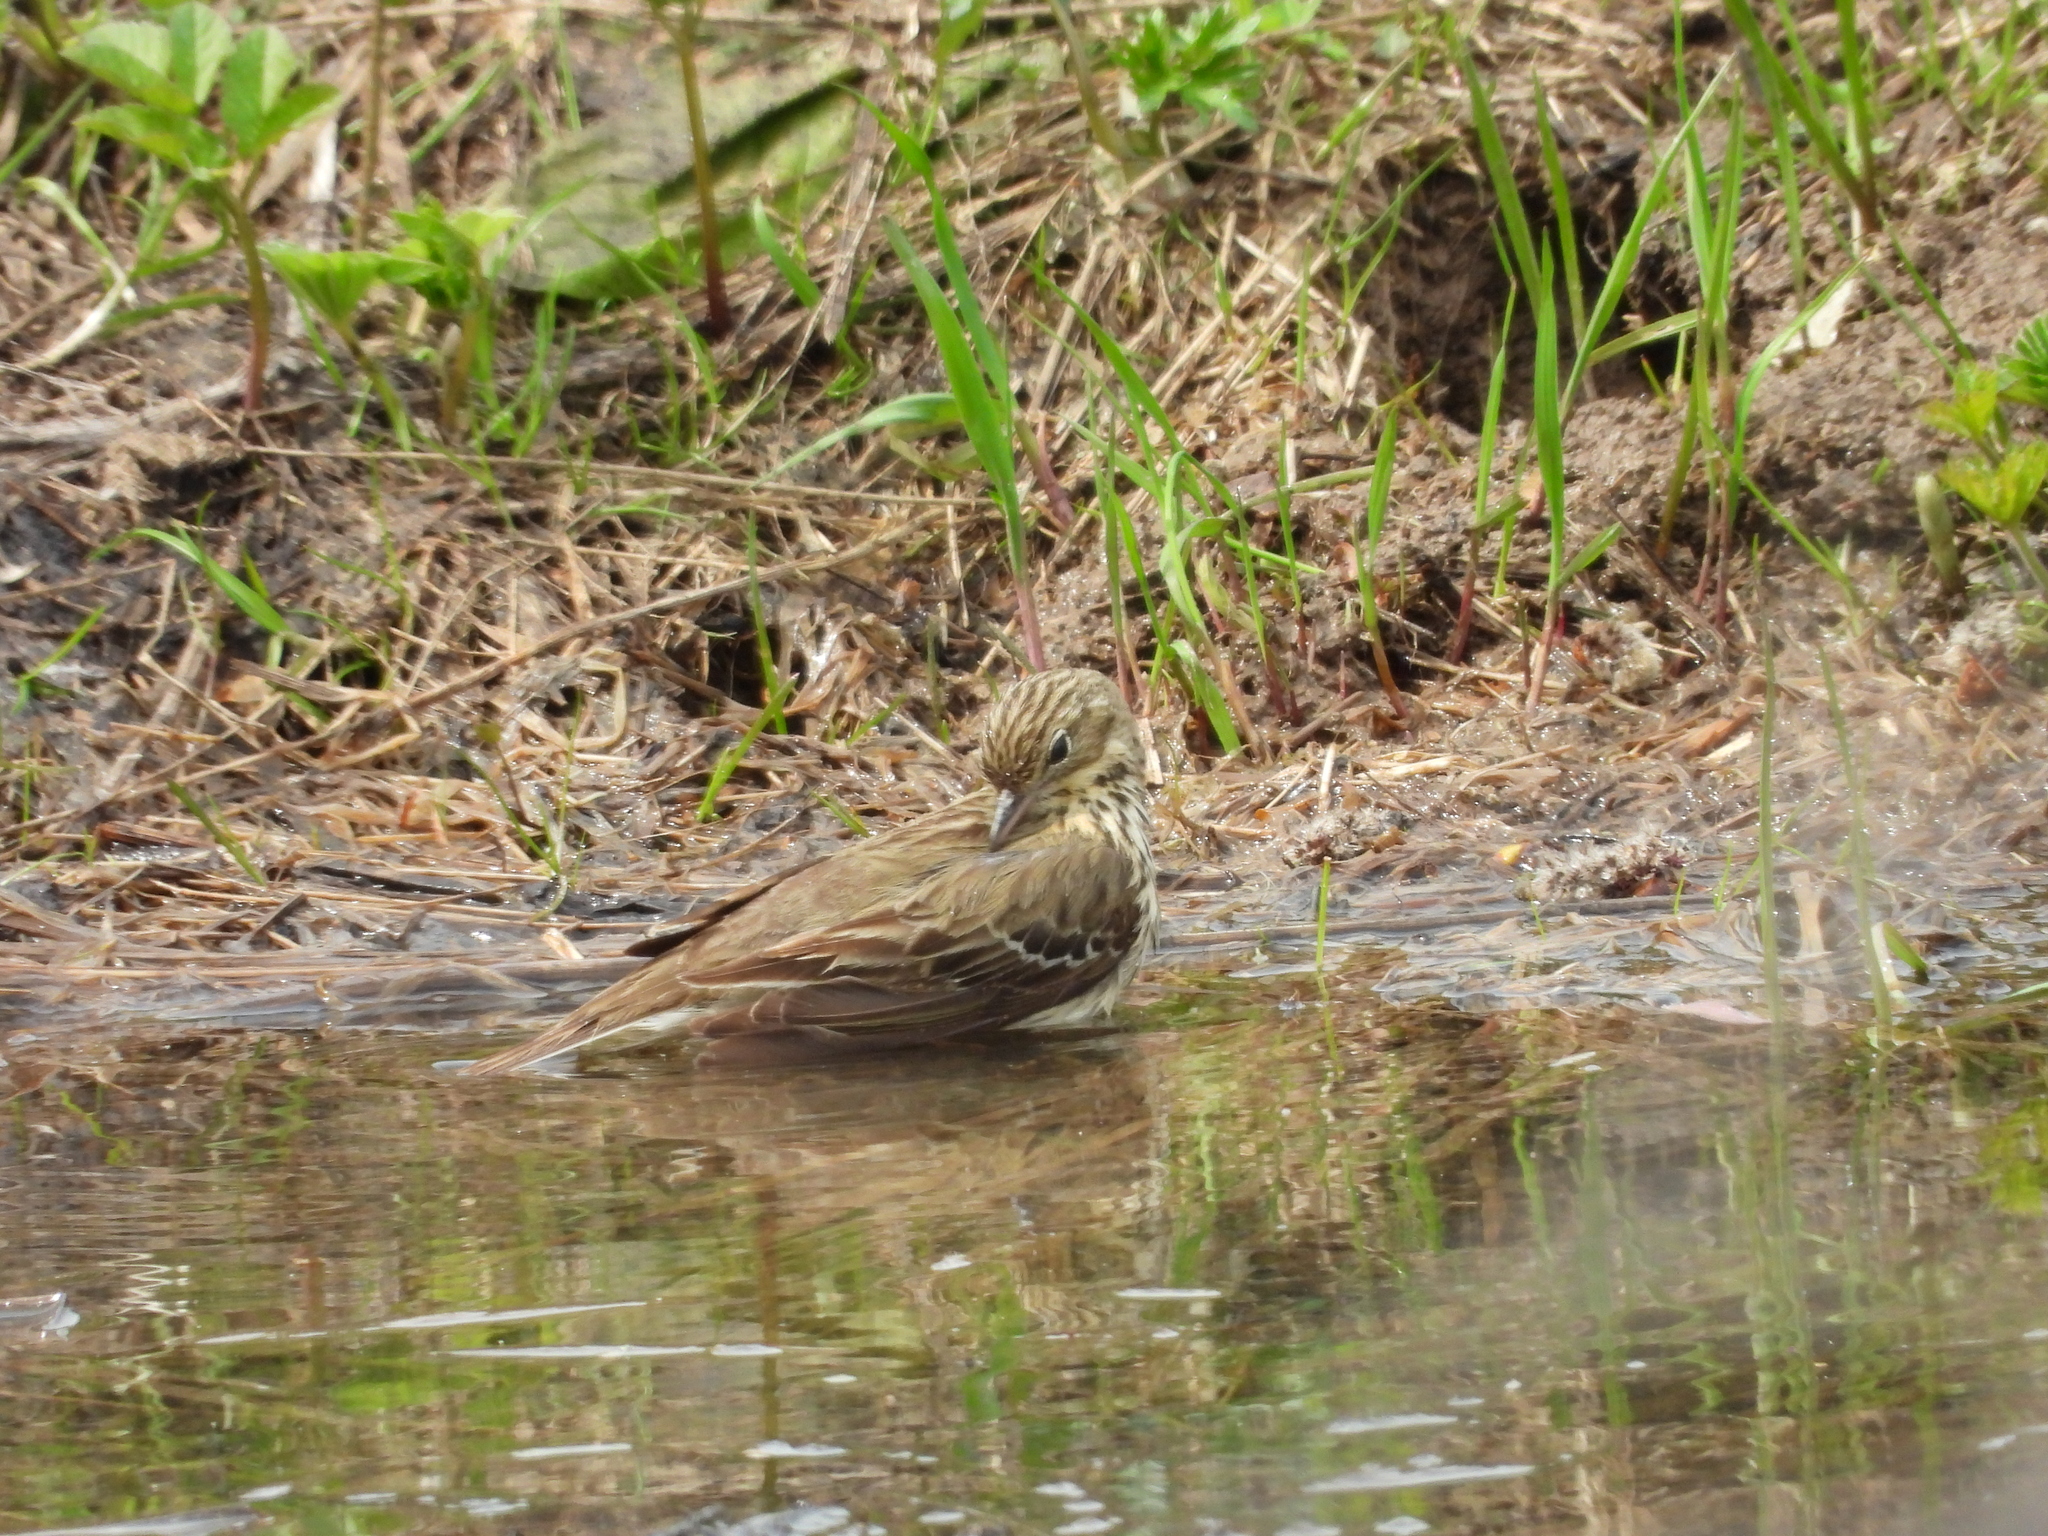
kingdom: Animalia
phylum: Chordata
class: Aves
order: Passeriformes
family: Motacillidae
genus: Anthus
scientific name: Anthus trivialis
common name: Tree pipit
